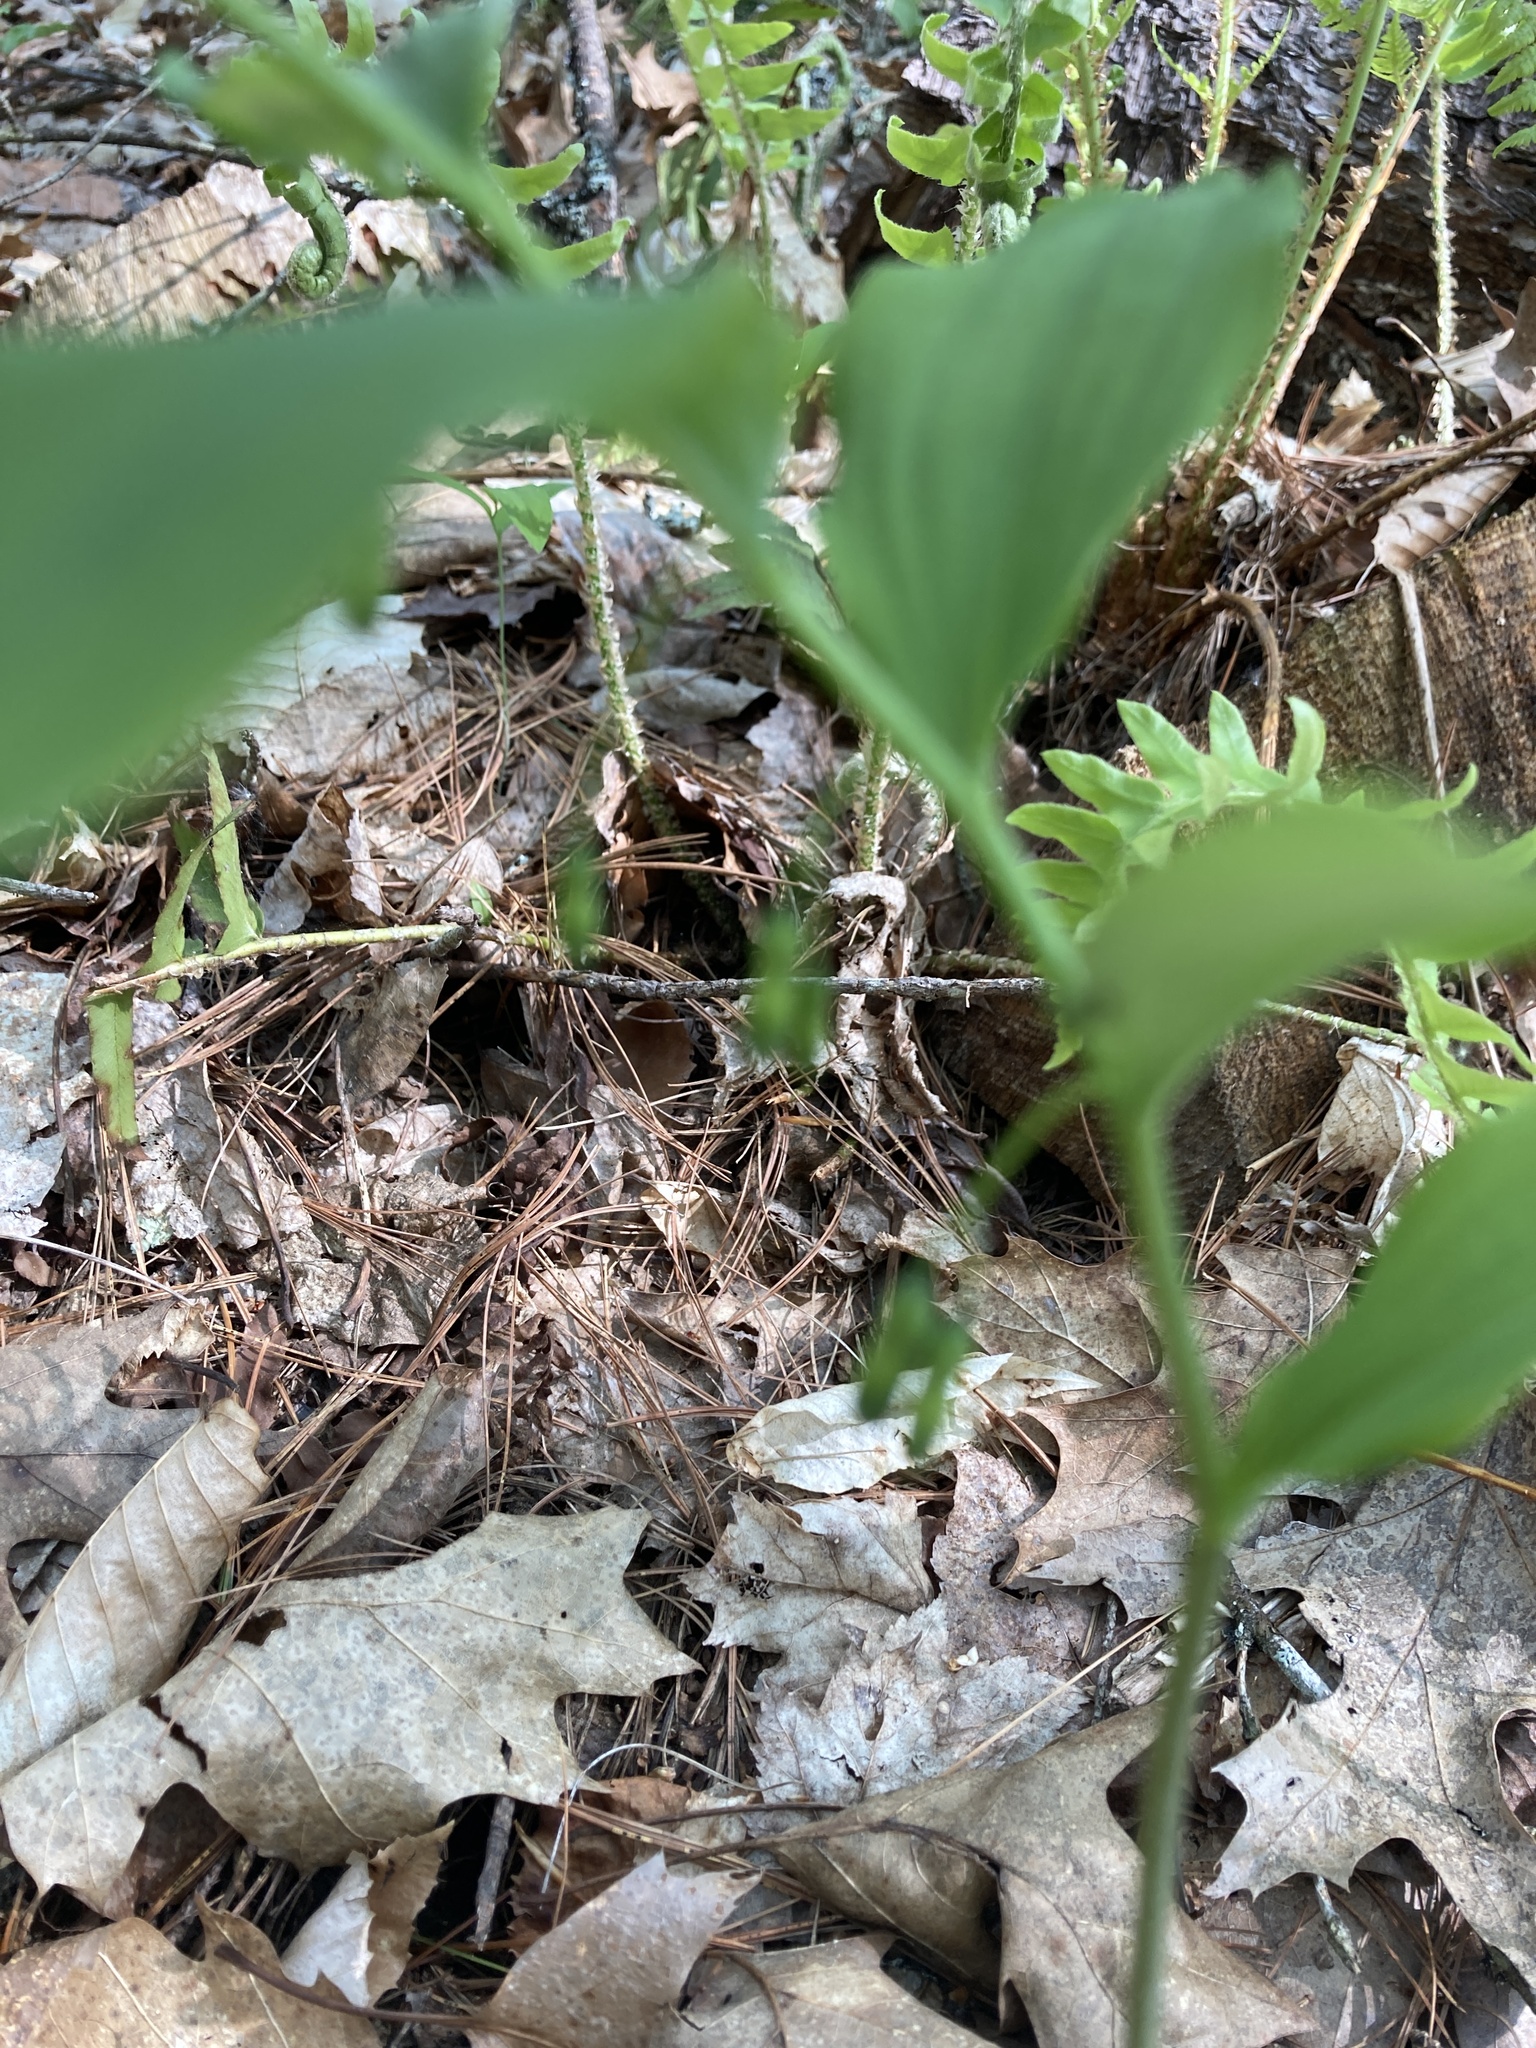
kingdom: Plantae
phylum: Tracheophyta
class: Liliopsida
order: Asparagales
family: Asparagaceae
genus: Polygonatum
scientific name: Polygonatum pubescens
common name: Downy solomon's seal
